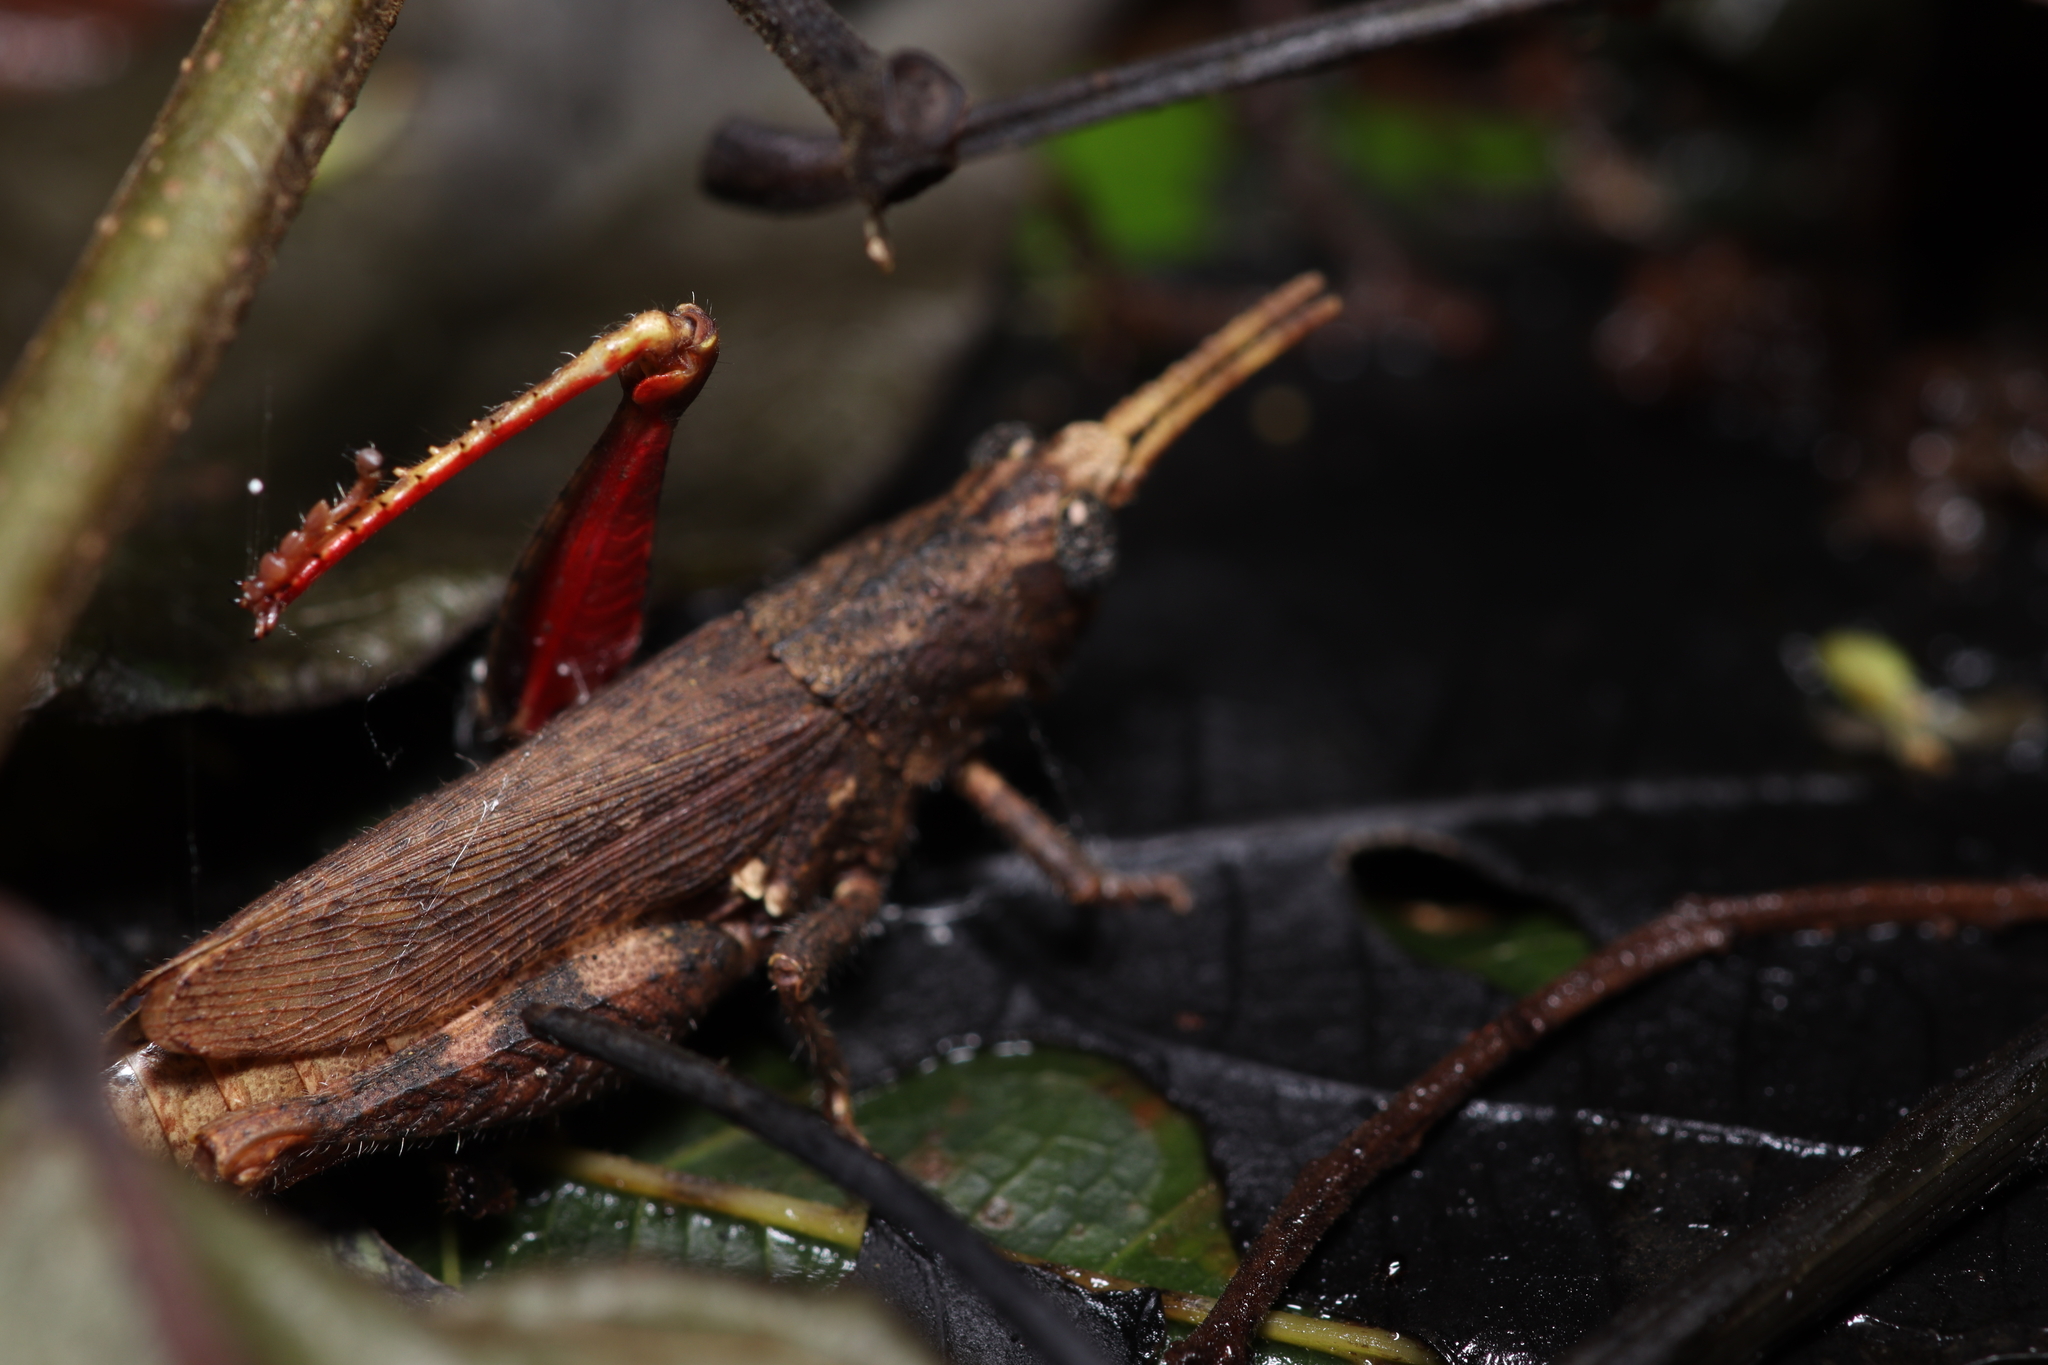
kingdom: Animalia
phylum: Arthropoda
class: Insecta
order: Orthoptera
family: Acrididae
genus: Vilerna
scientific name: Vilerna rugulosa
